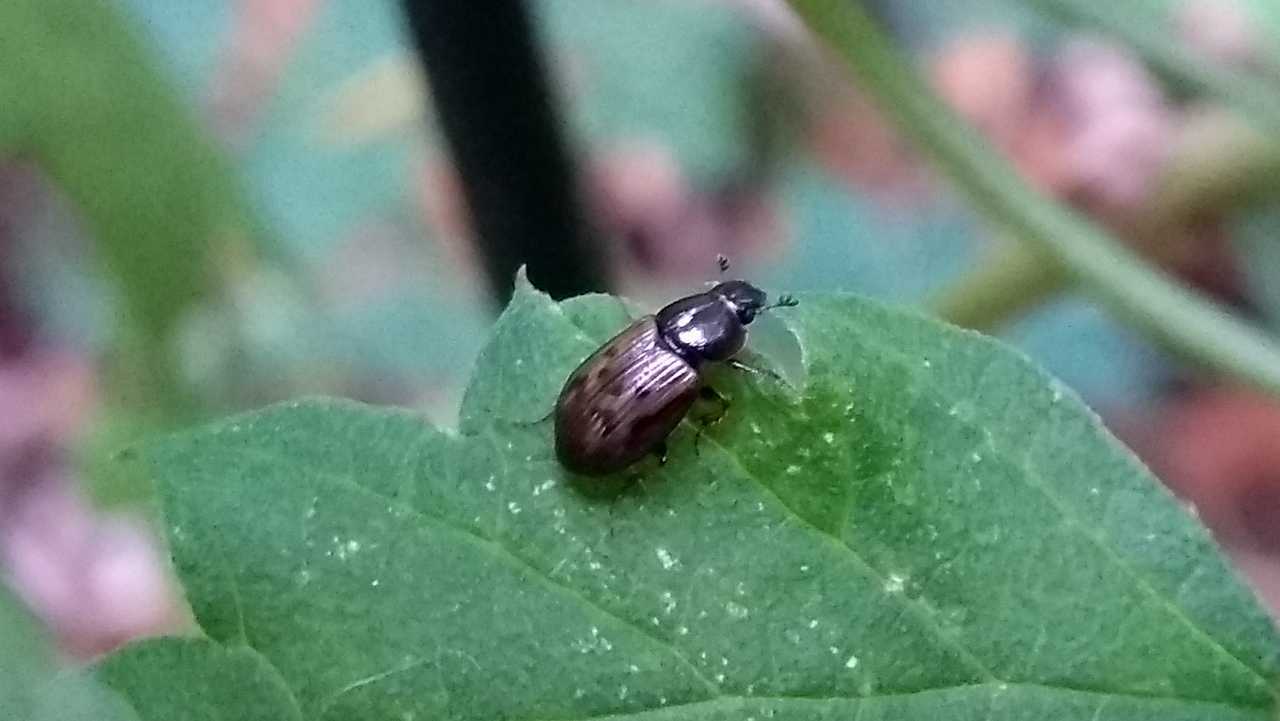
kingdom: Animalia
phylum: Arthropoda
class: Insecta
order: Coleoptera
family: Scarabaeidae
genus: Nimbus
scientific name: Nimbus contaminatus
